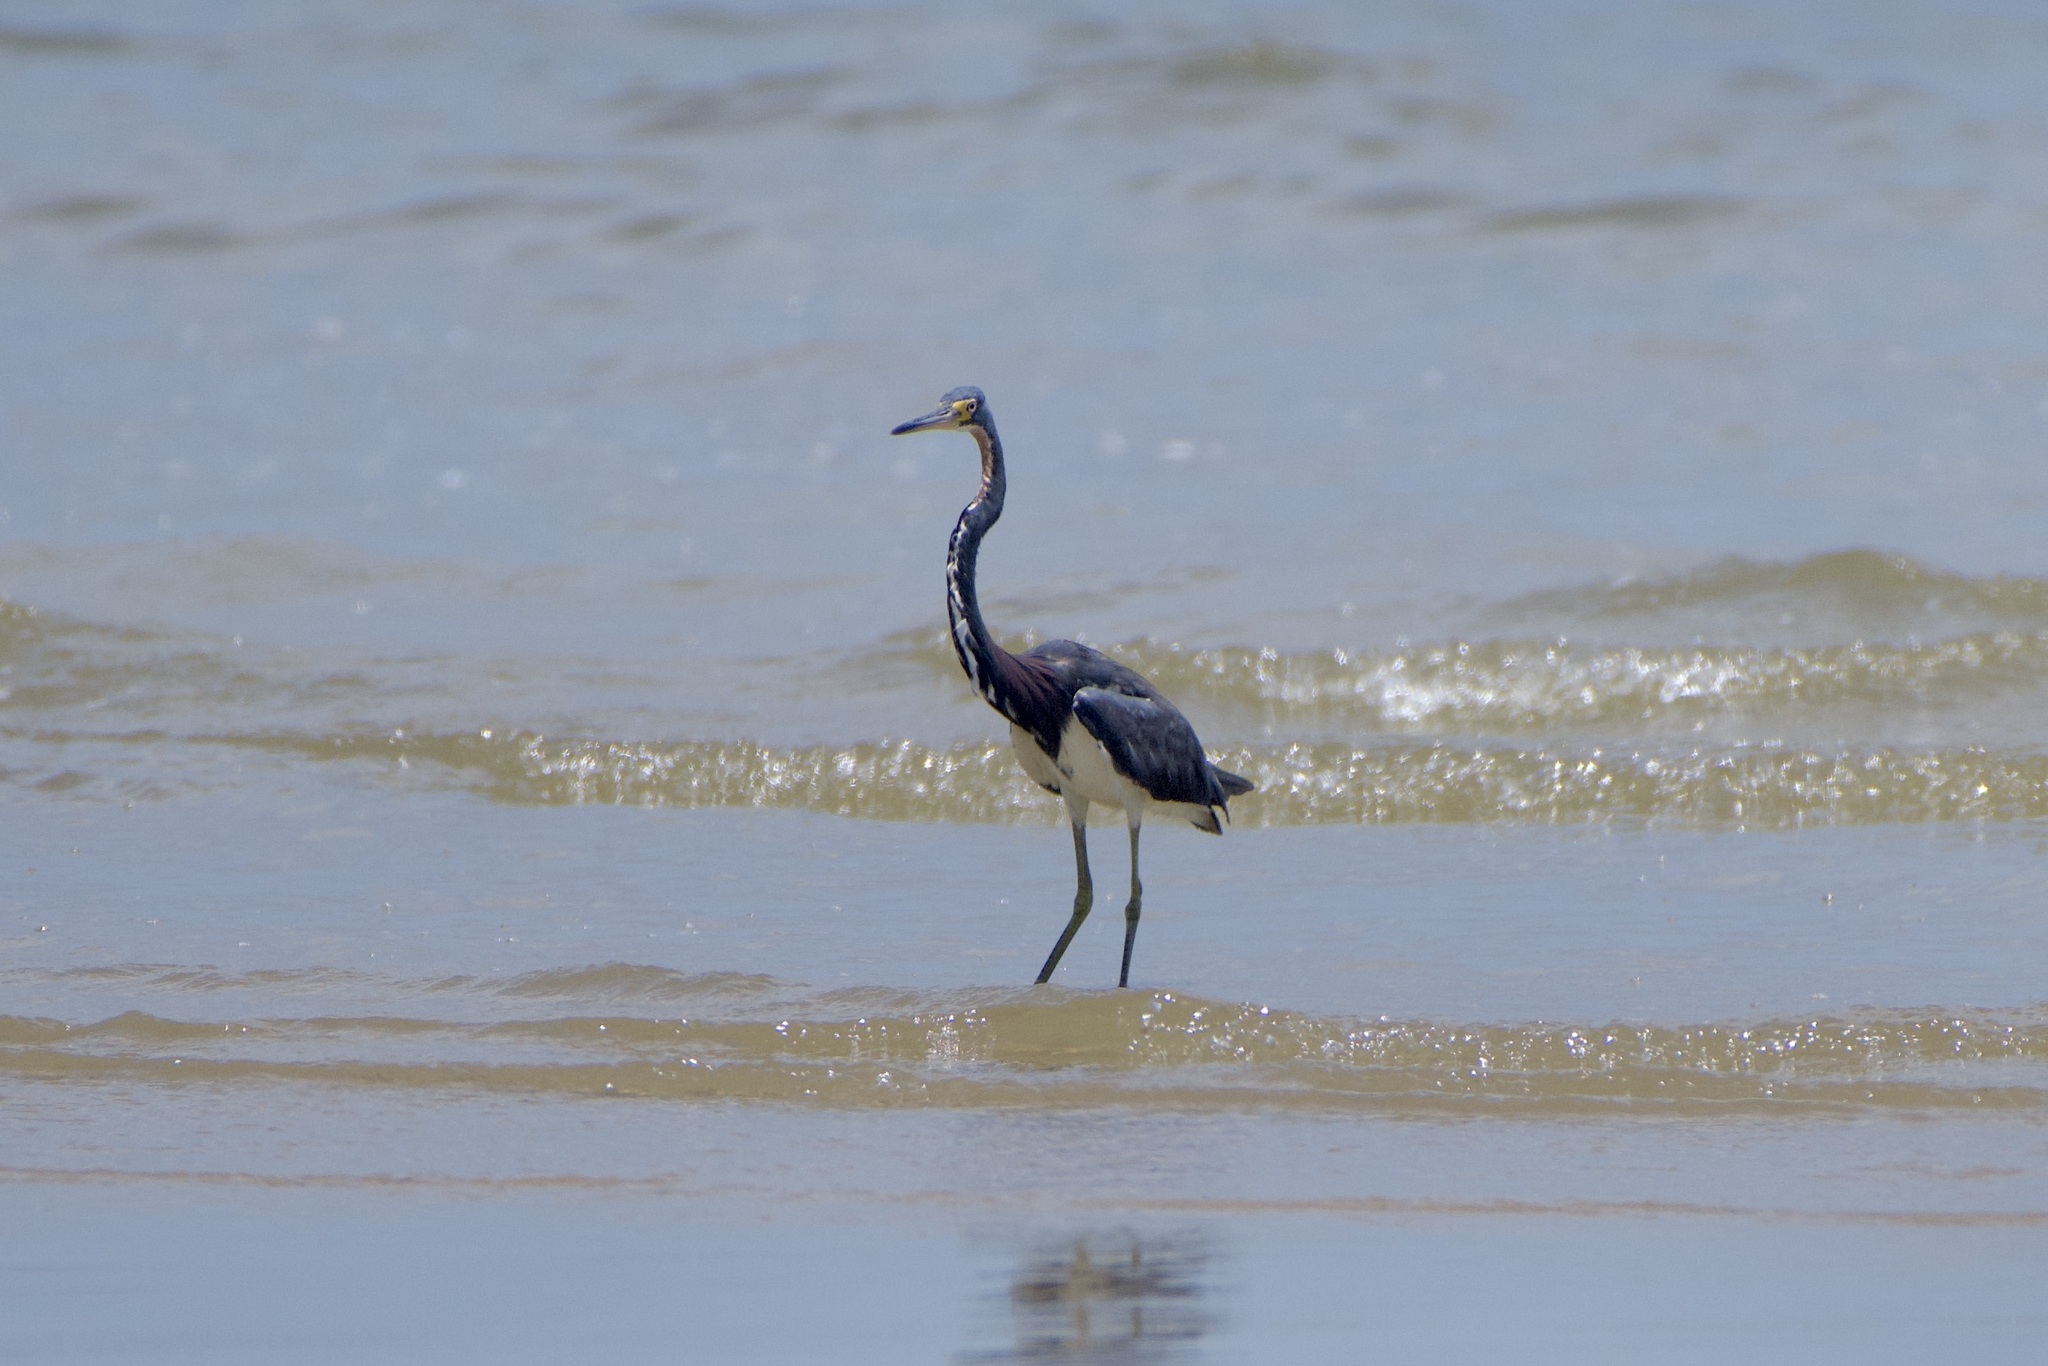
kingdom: Animalia
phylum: Chordata
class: Aves
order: Pelecaniformes
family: Ardeidae
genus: Egretta
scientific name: Egretta tricolor
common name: Tricolored heron
